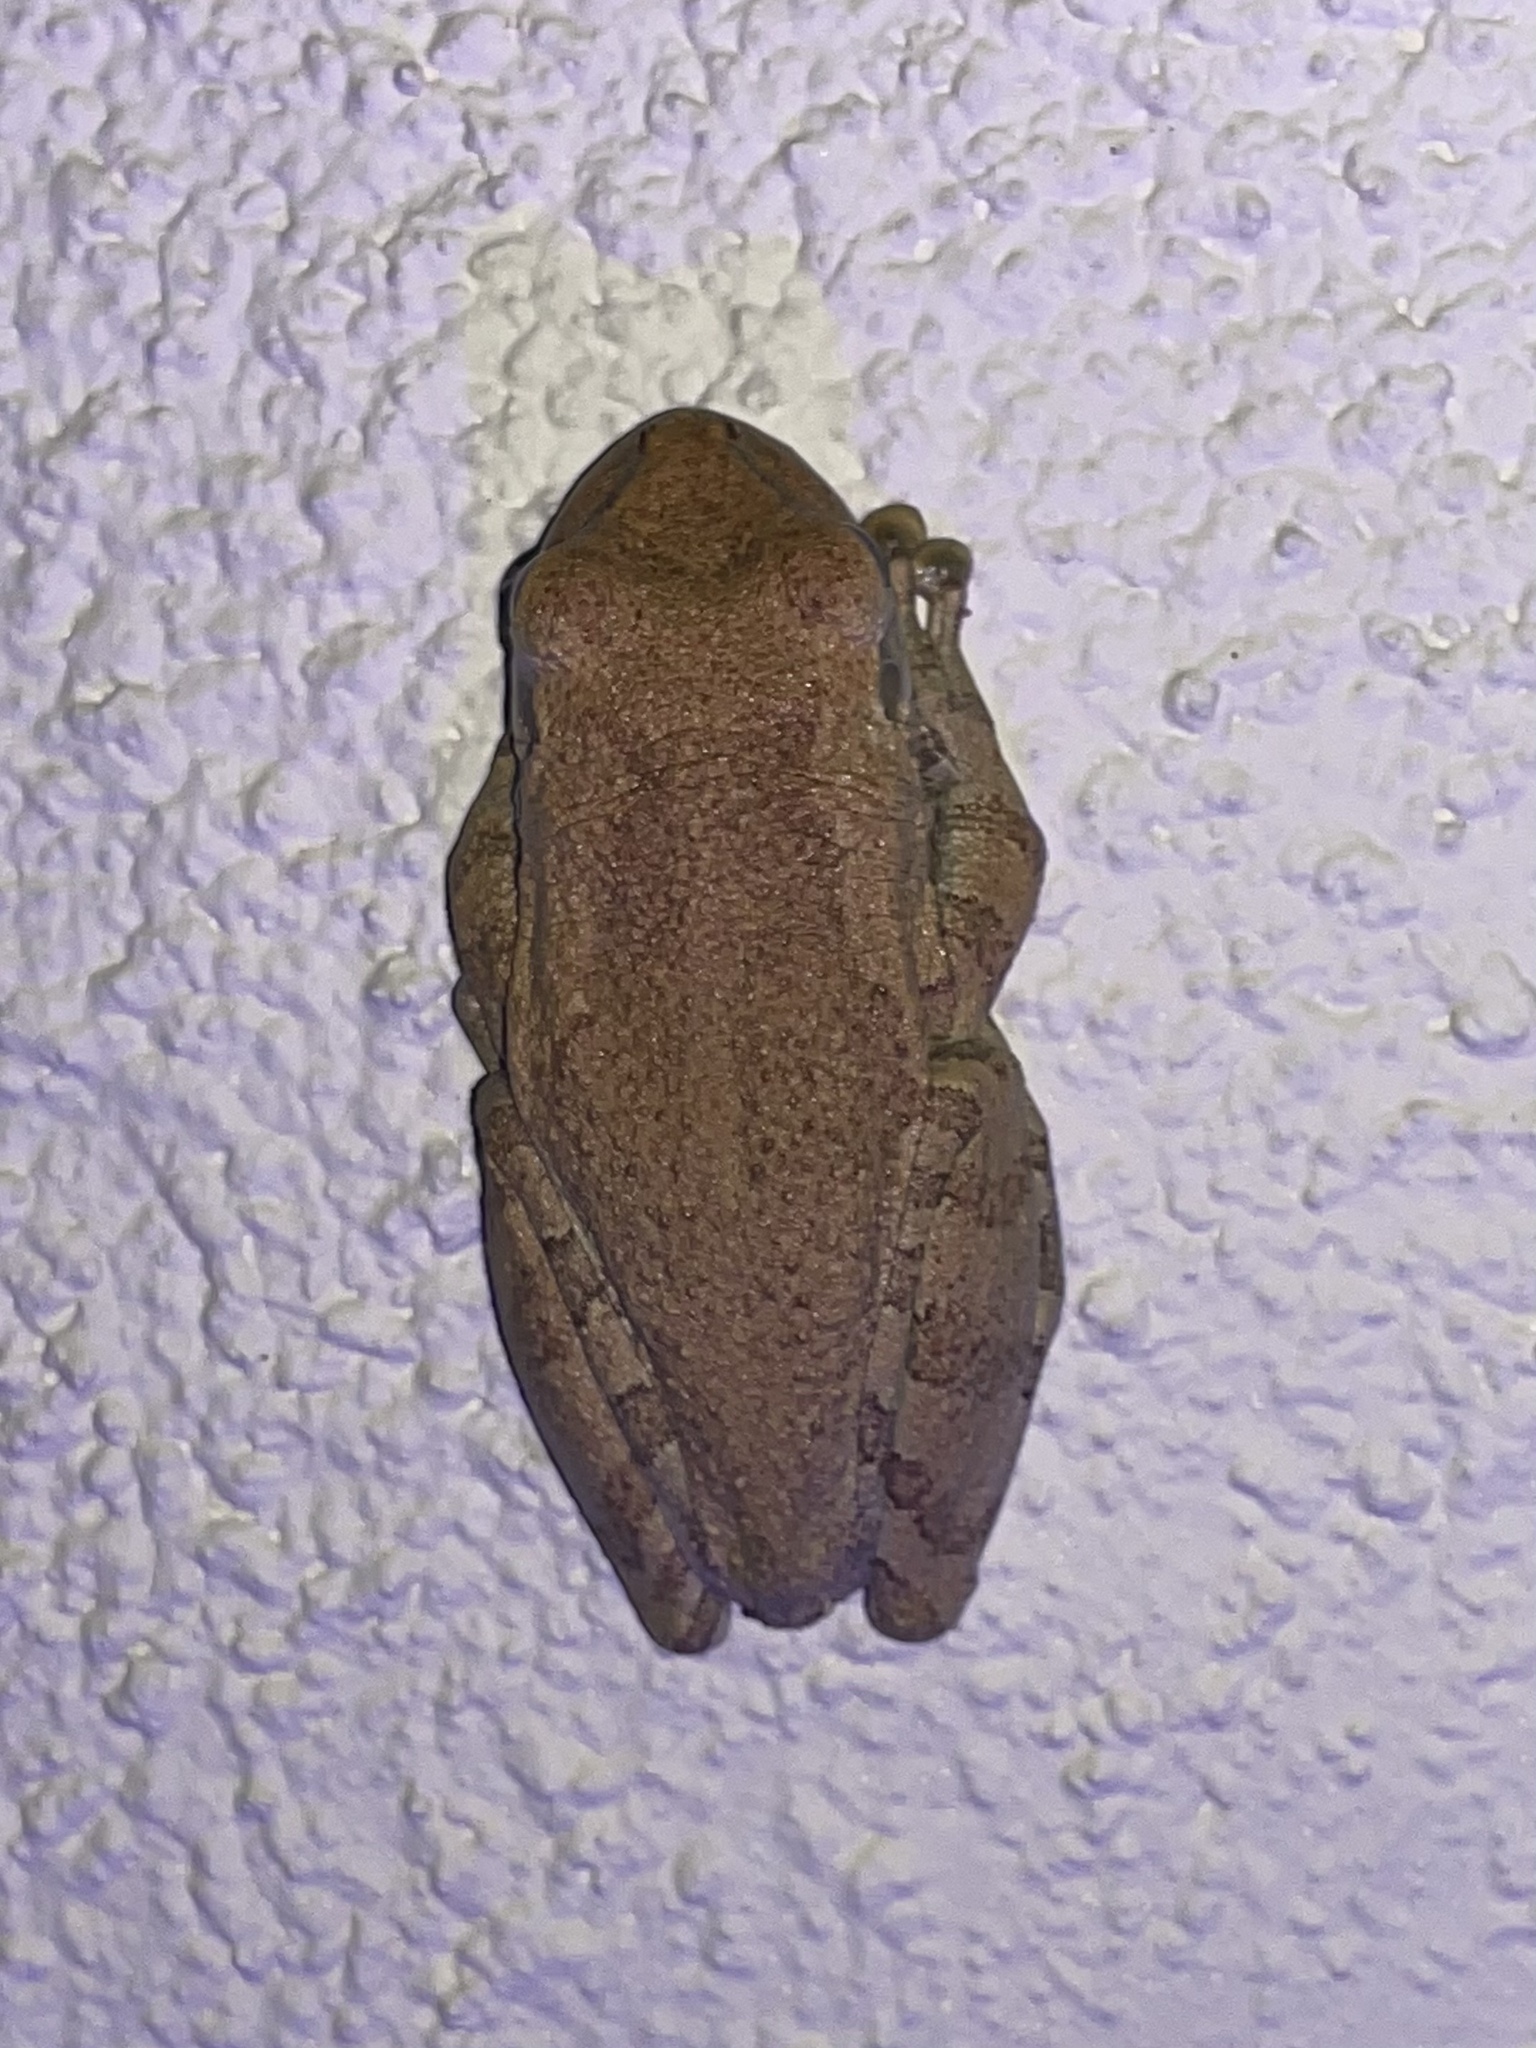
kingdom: Animalia
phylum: Chordata
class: Amphibia
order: Anura
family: Hylidae
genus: Osteopilus
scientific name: Osteopilus septentrionalis
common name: Cuban treefrog
